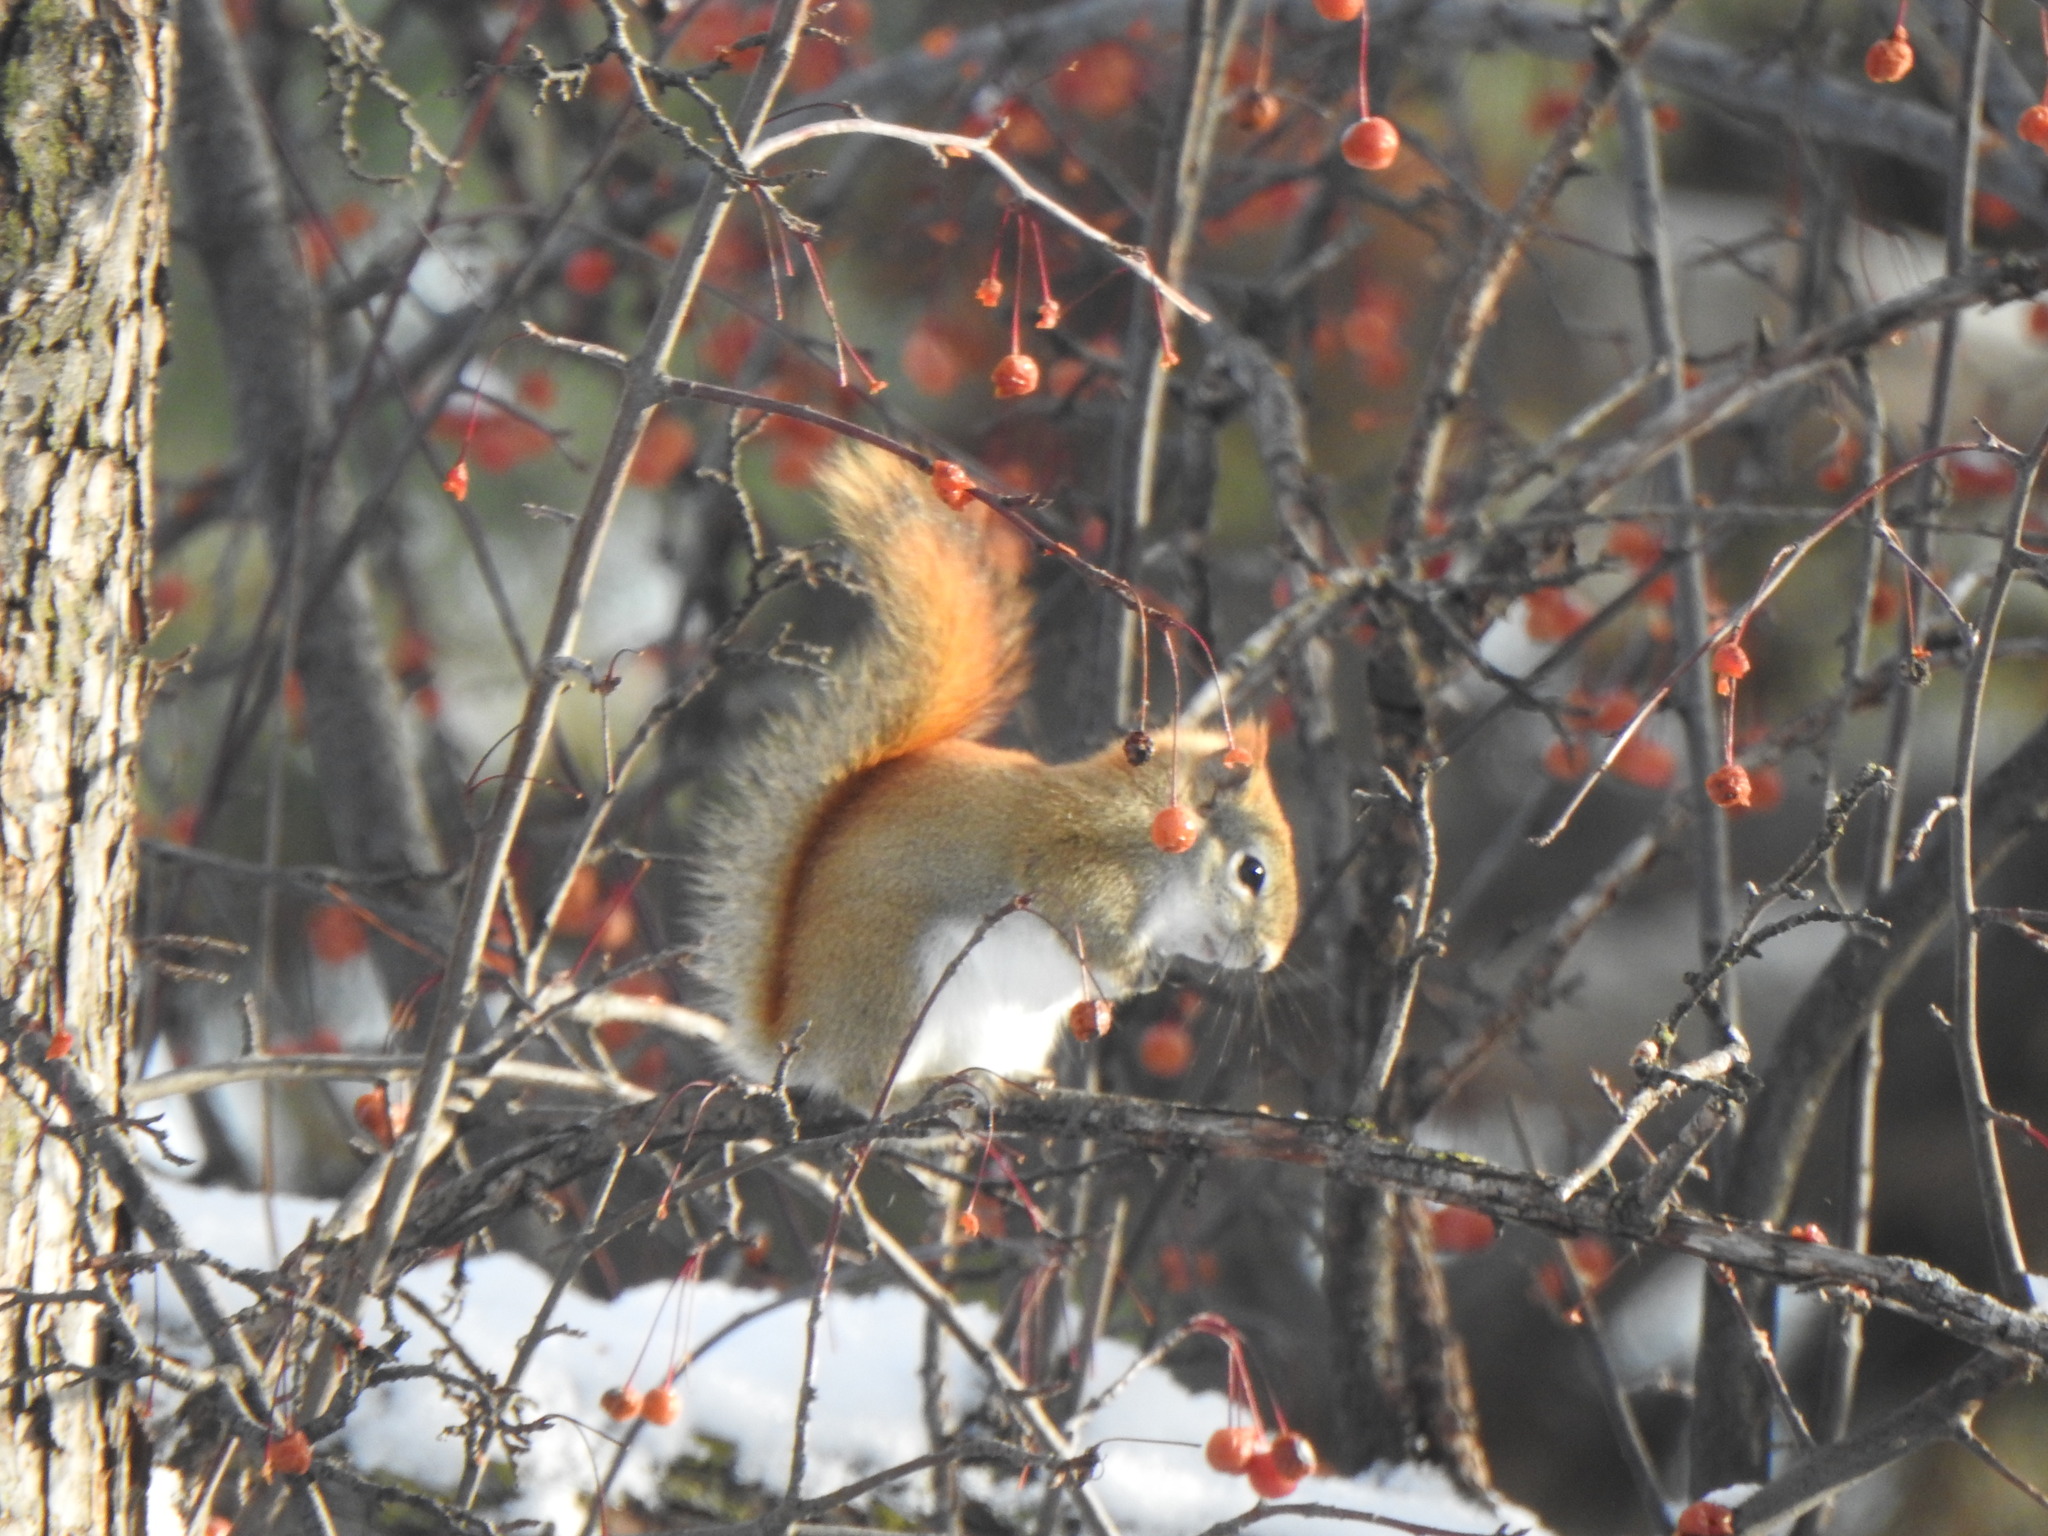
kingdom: Animalia
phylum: Chordata
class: Mammalia
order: Rodentia
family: Sciuridae
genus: Tamiasciurus
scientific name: Tamiasciurus hudsonicus
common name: Red squirrel
